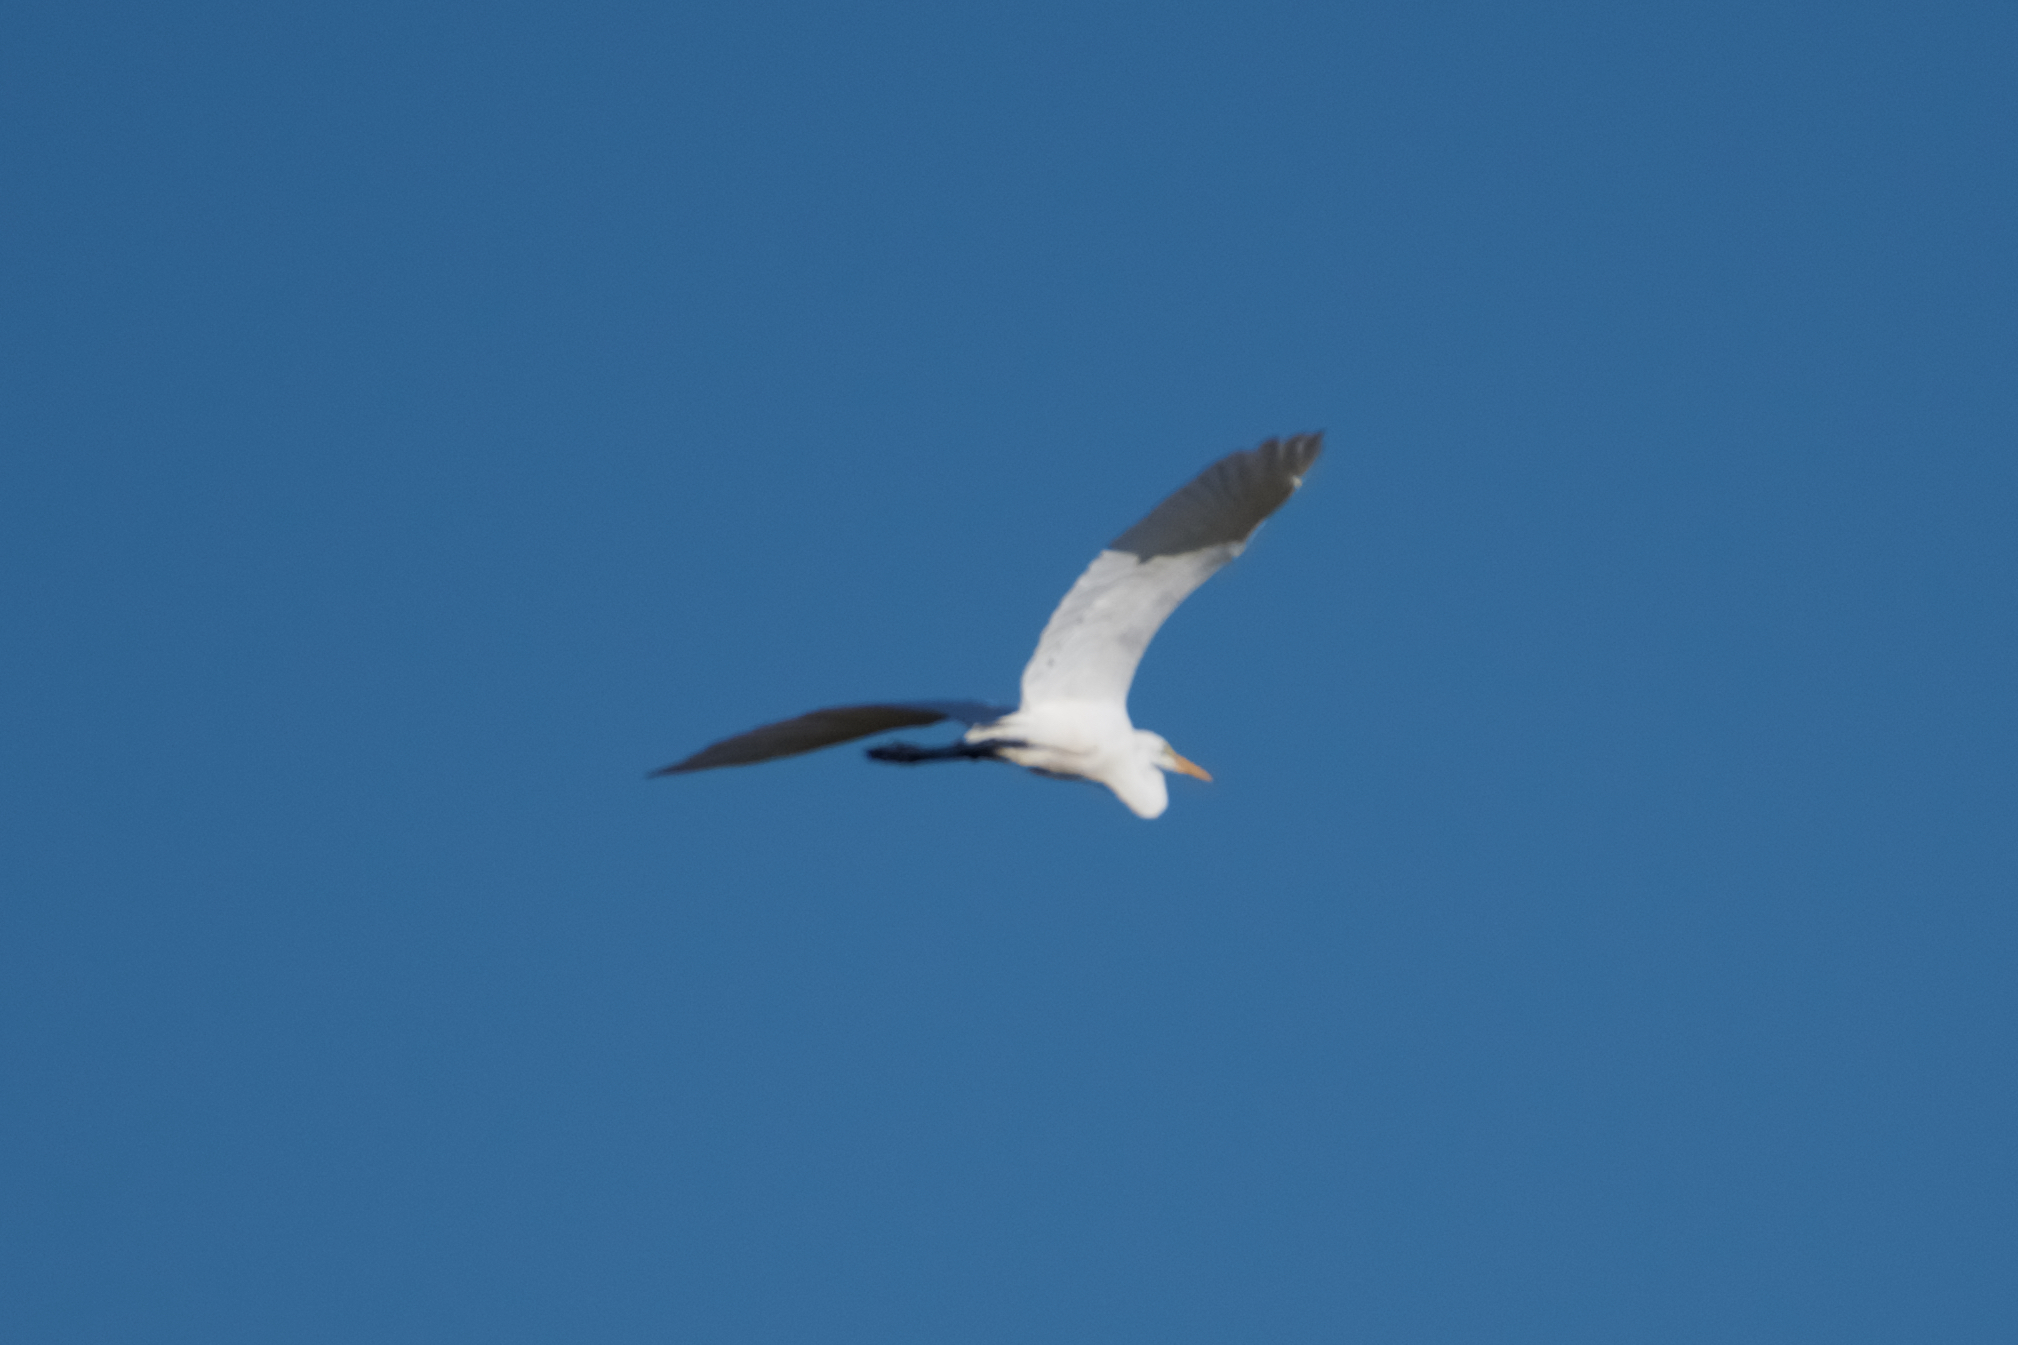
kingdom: Animalia
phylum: Chordata
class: Aves
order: Pelecaniformes
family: Ardeidae
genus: Ardea
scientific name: Ardea alba
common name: Great egret
